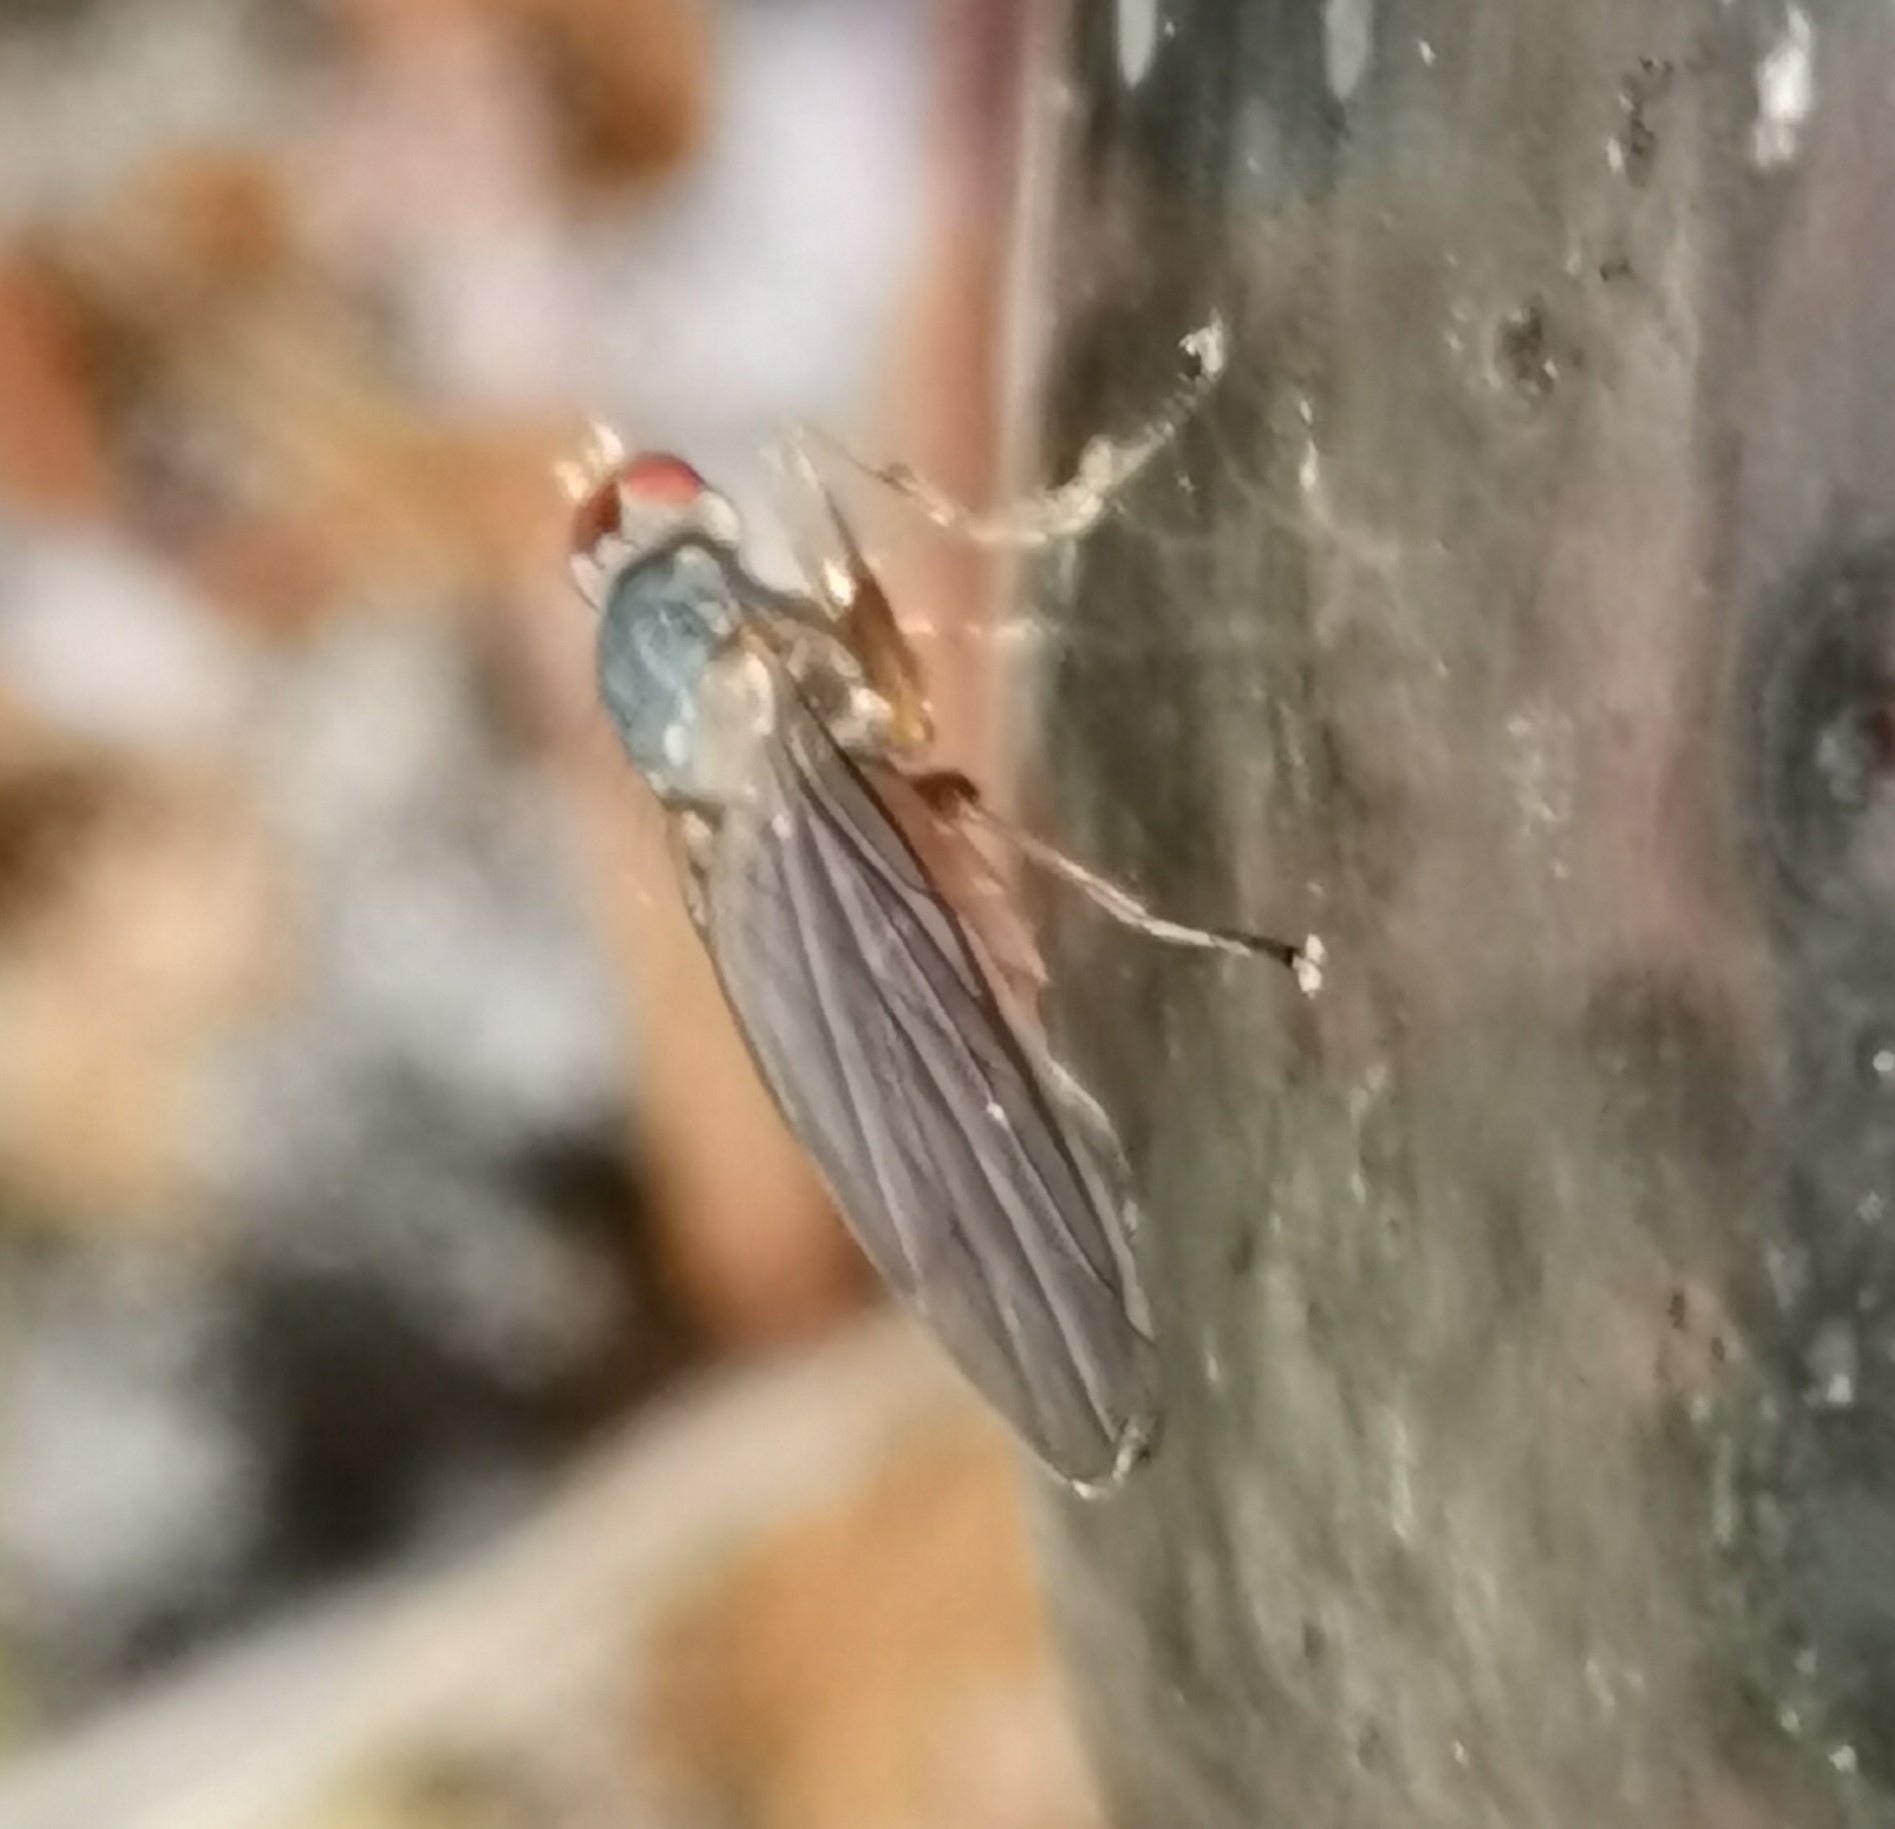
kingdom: Animalia
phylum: Arthropoda
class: Insecta
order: Diptera
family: Heleomyzidae
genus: Orbellia
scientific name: Orbellia nivicola
